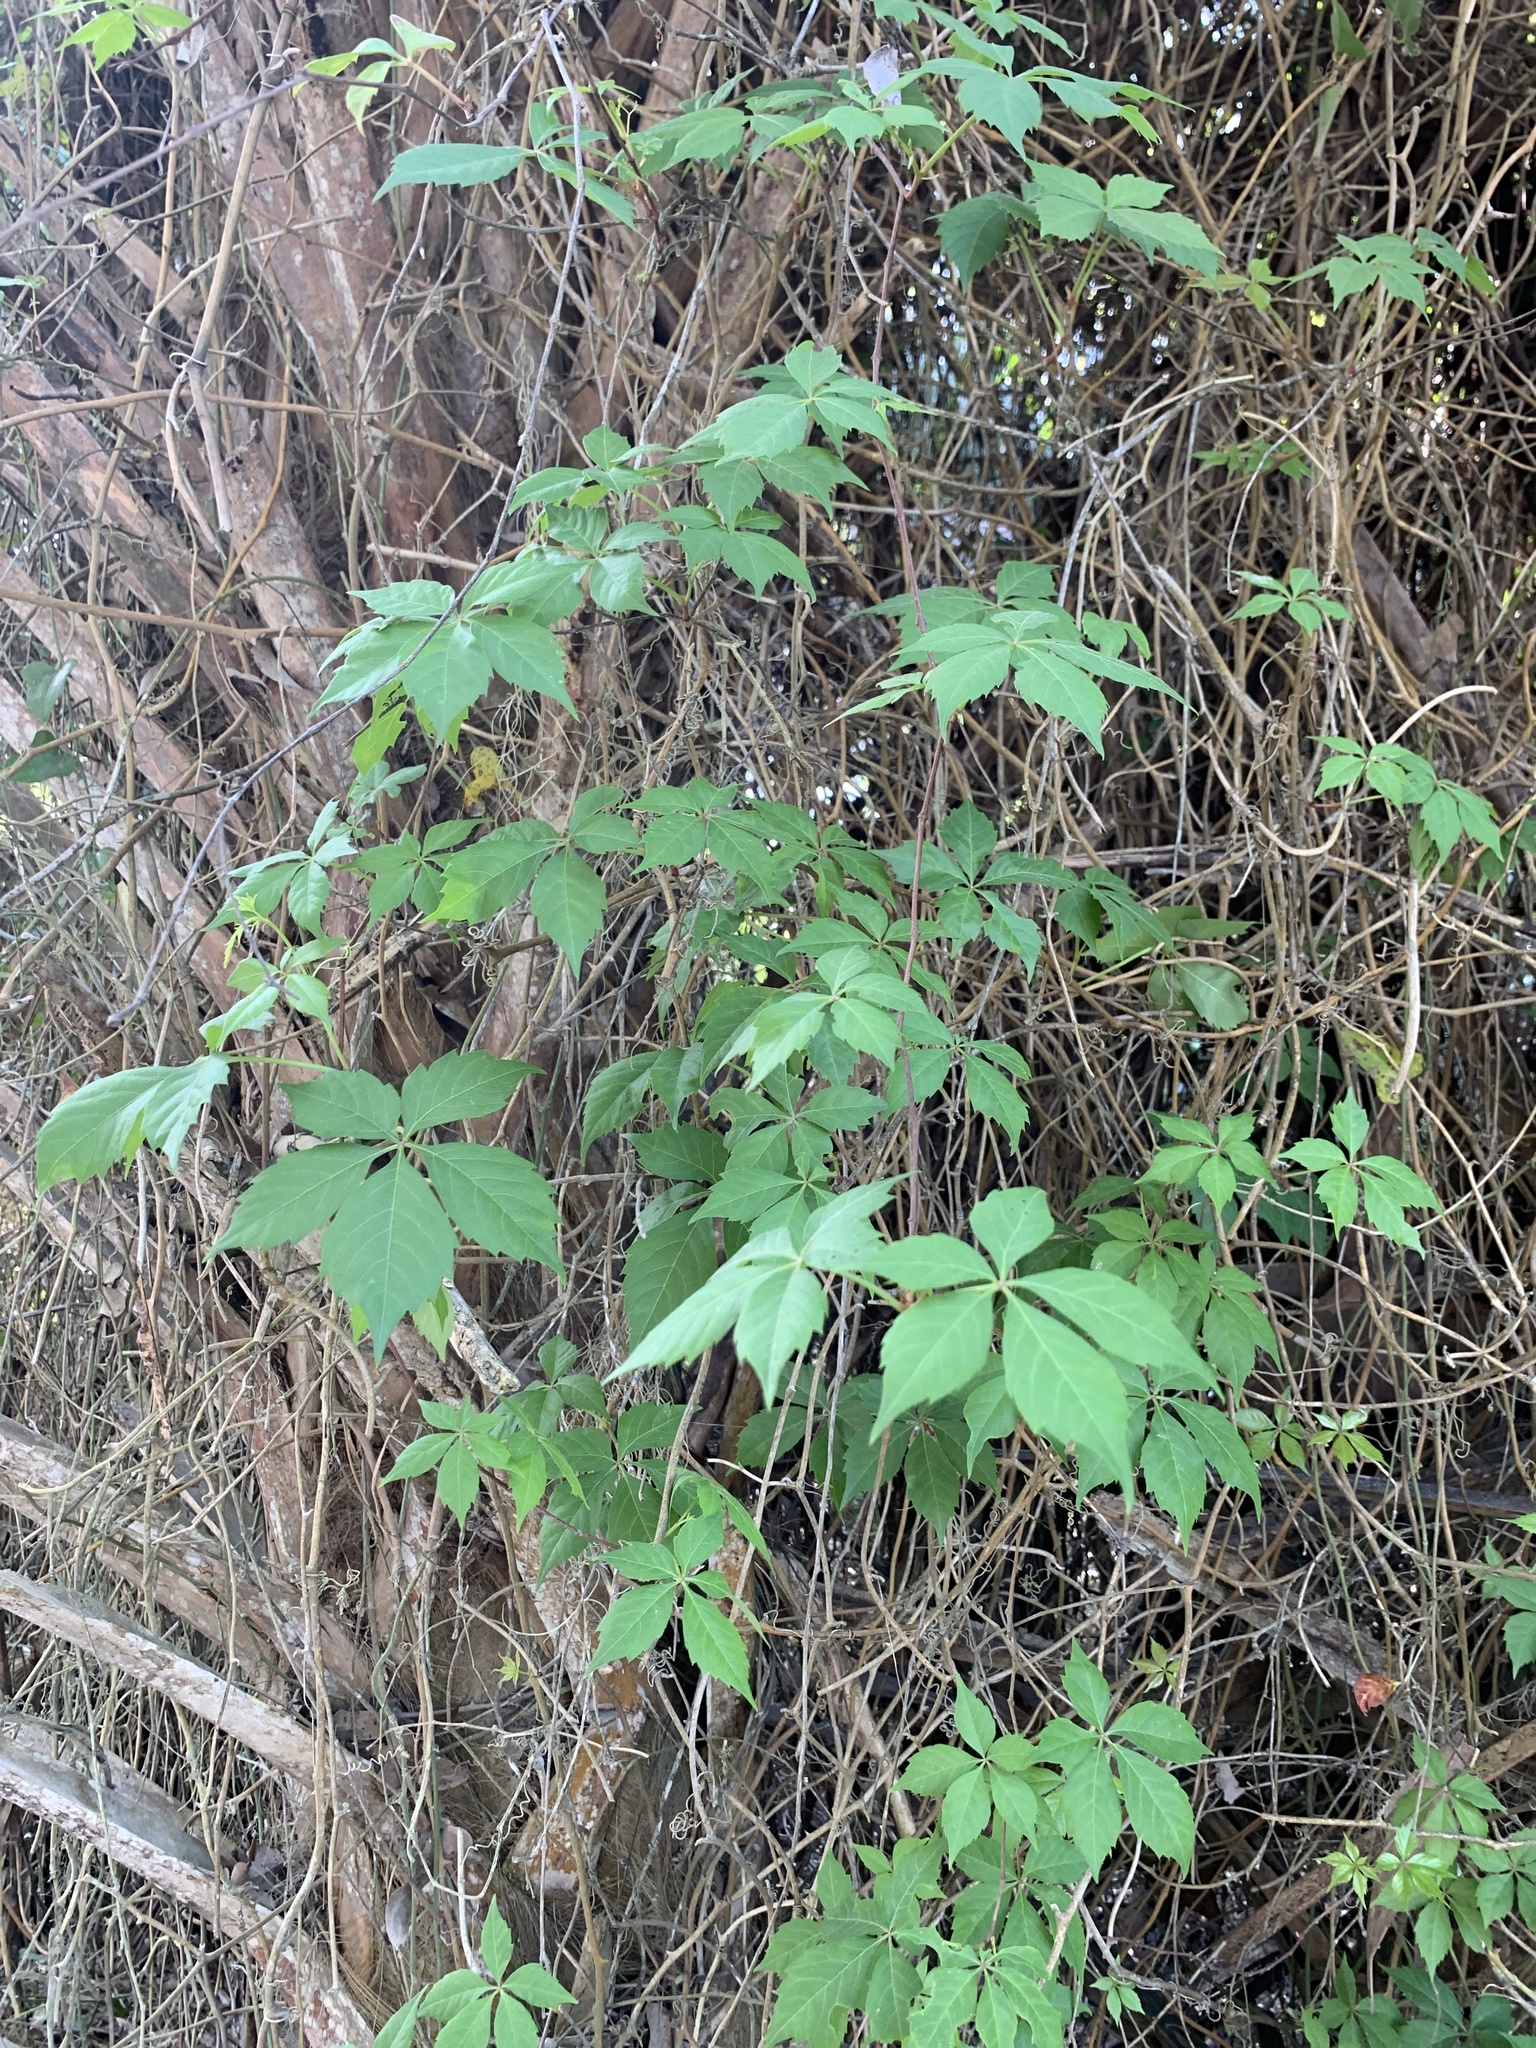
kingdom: Plantae
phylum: Tracheophyta
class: Magnoliopsida
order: Vitales
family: Vitaceae
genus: Parthenocissus
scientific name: Parthenocissus quinquefolia
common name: Virginia-creeper
